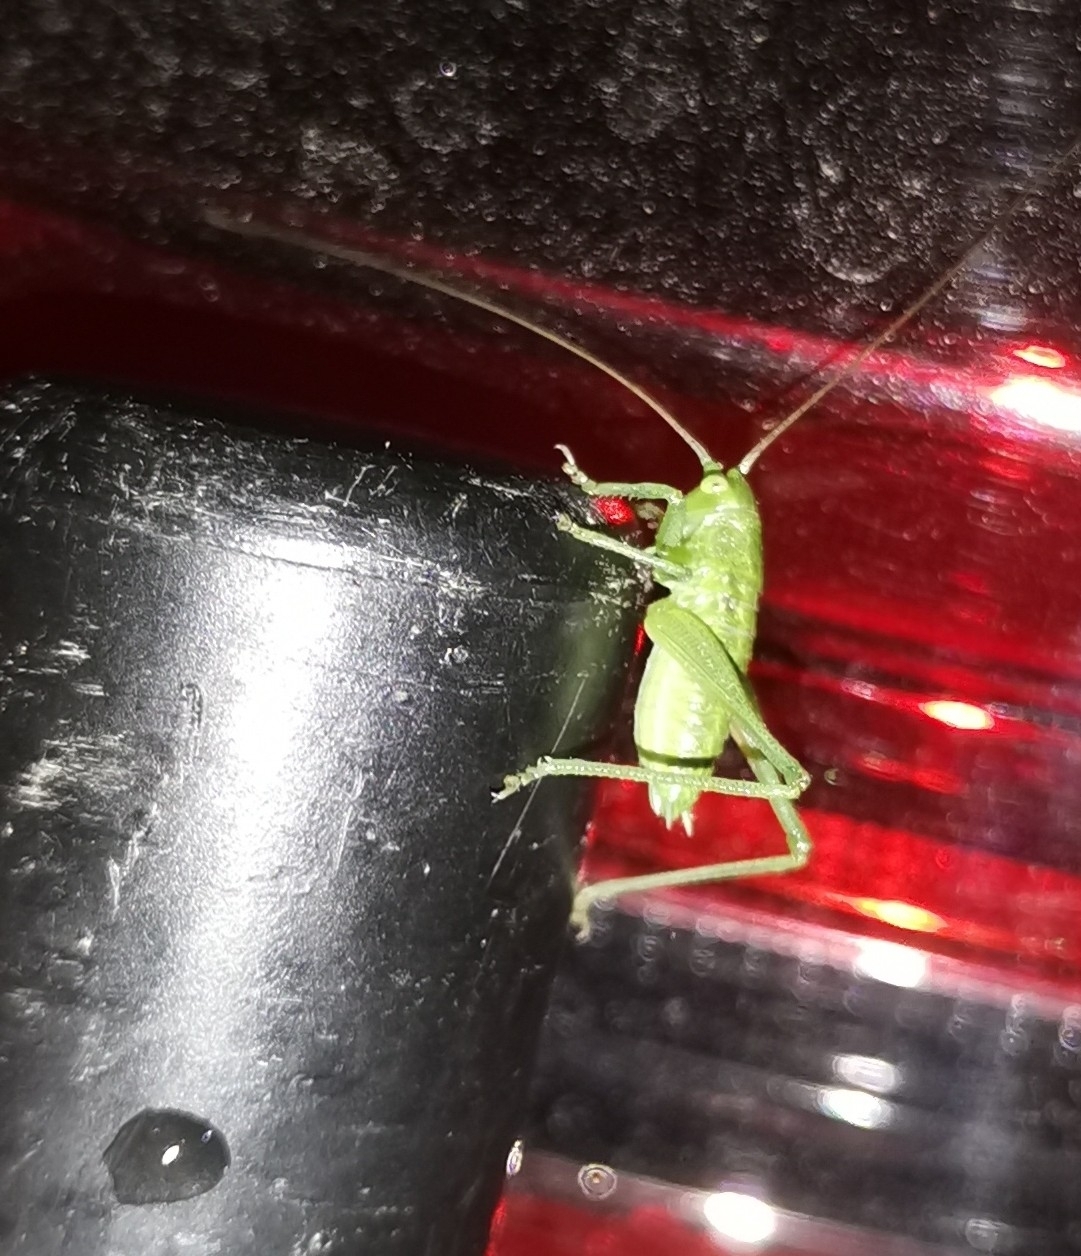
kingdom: Animalia
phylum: Arthropoda
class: Insecta
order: Orthoptera
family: Tettigoniidae
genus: Tettigonia
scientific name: Tettigonia viridissima
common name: Great green bush-cricket
